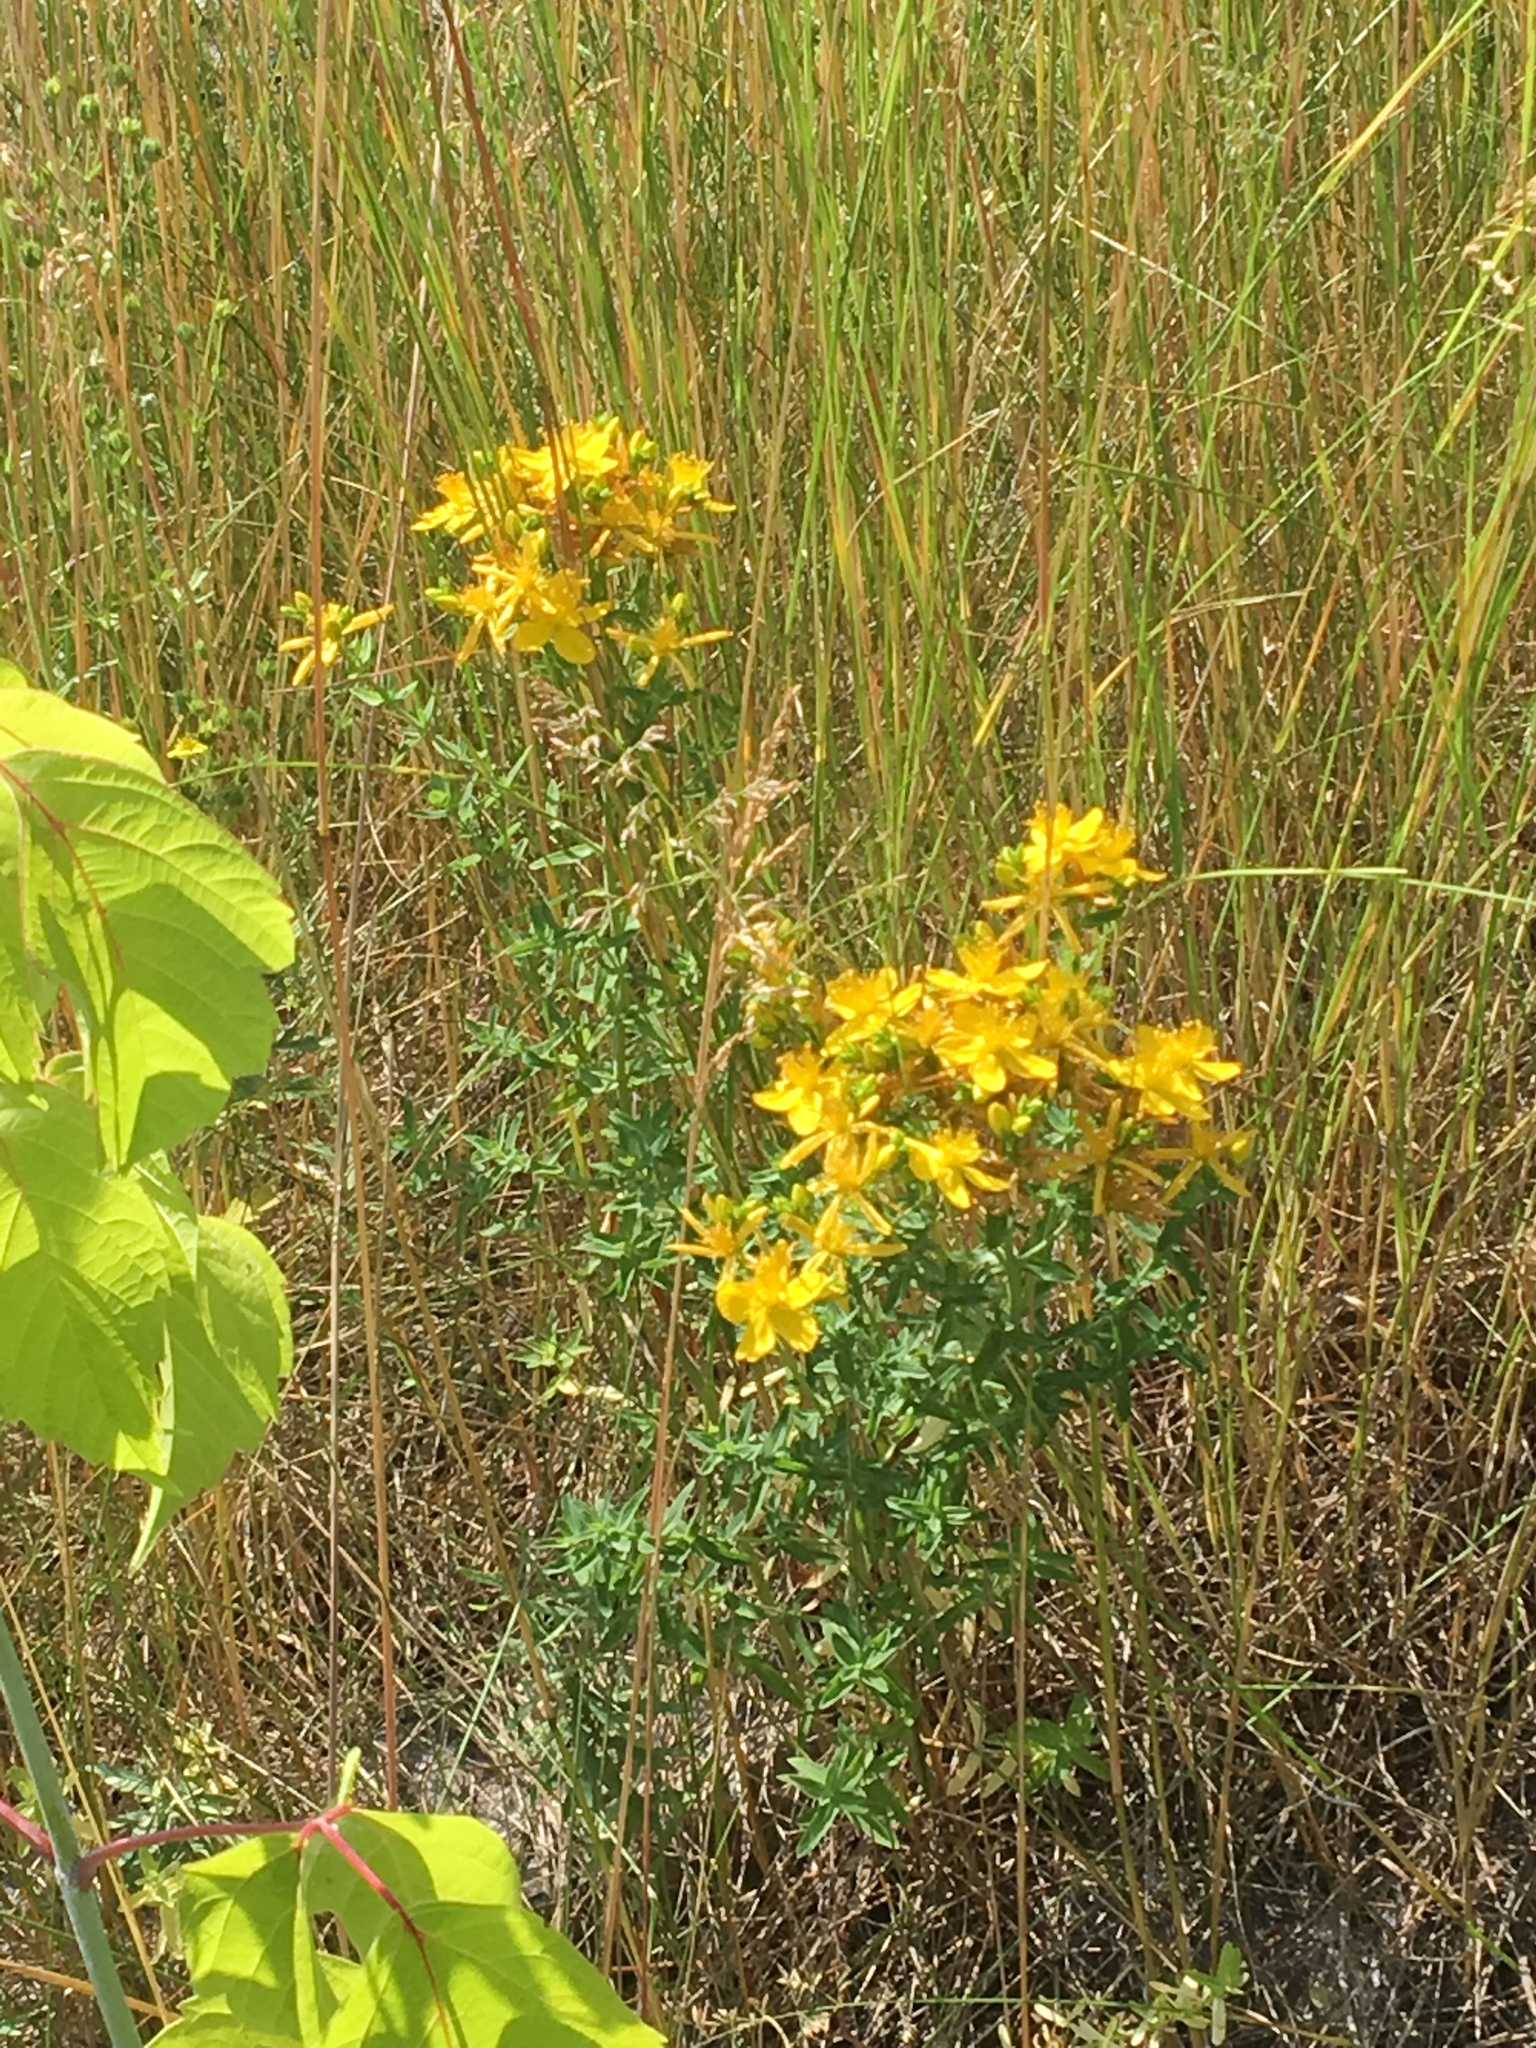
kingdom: Plantae
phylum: Tracheophyta
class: Magnoliopsida
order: Malpighiales
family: Hypericaceae
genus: Hypericum
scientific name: Hypericum perforatum
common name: Common st. johnswort
